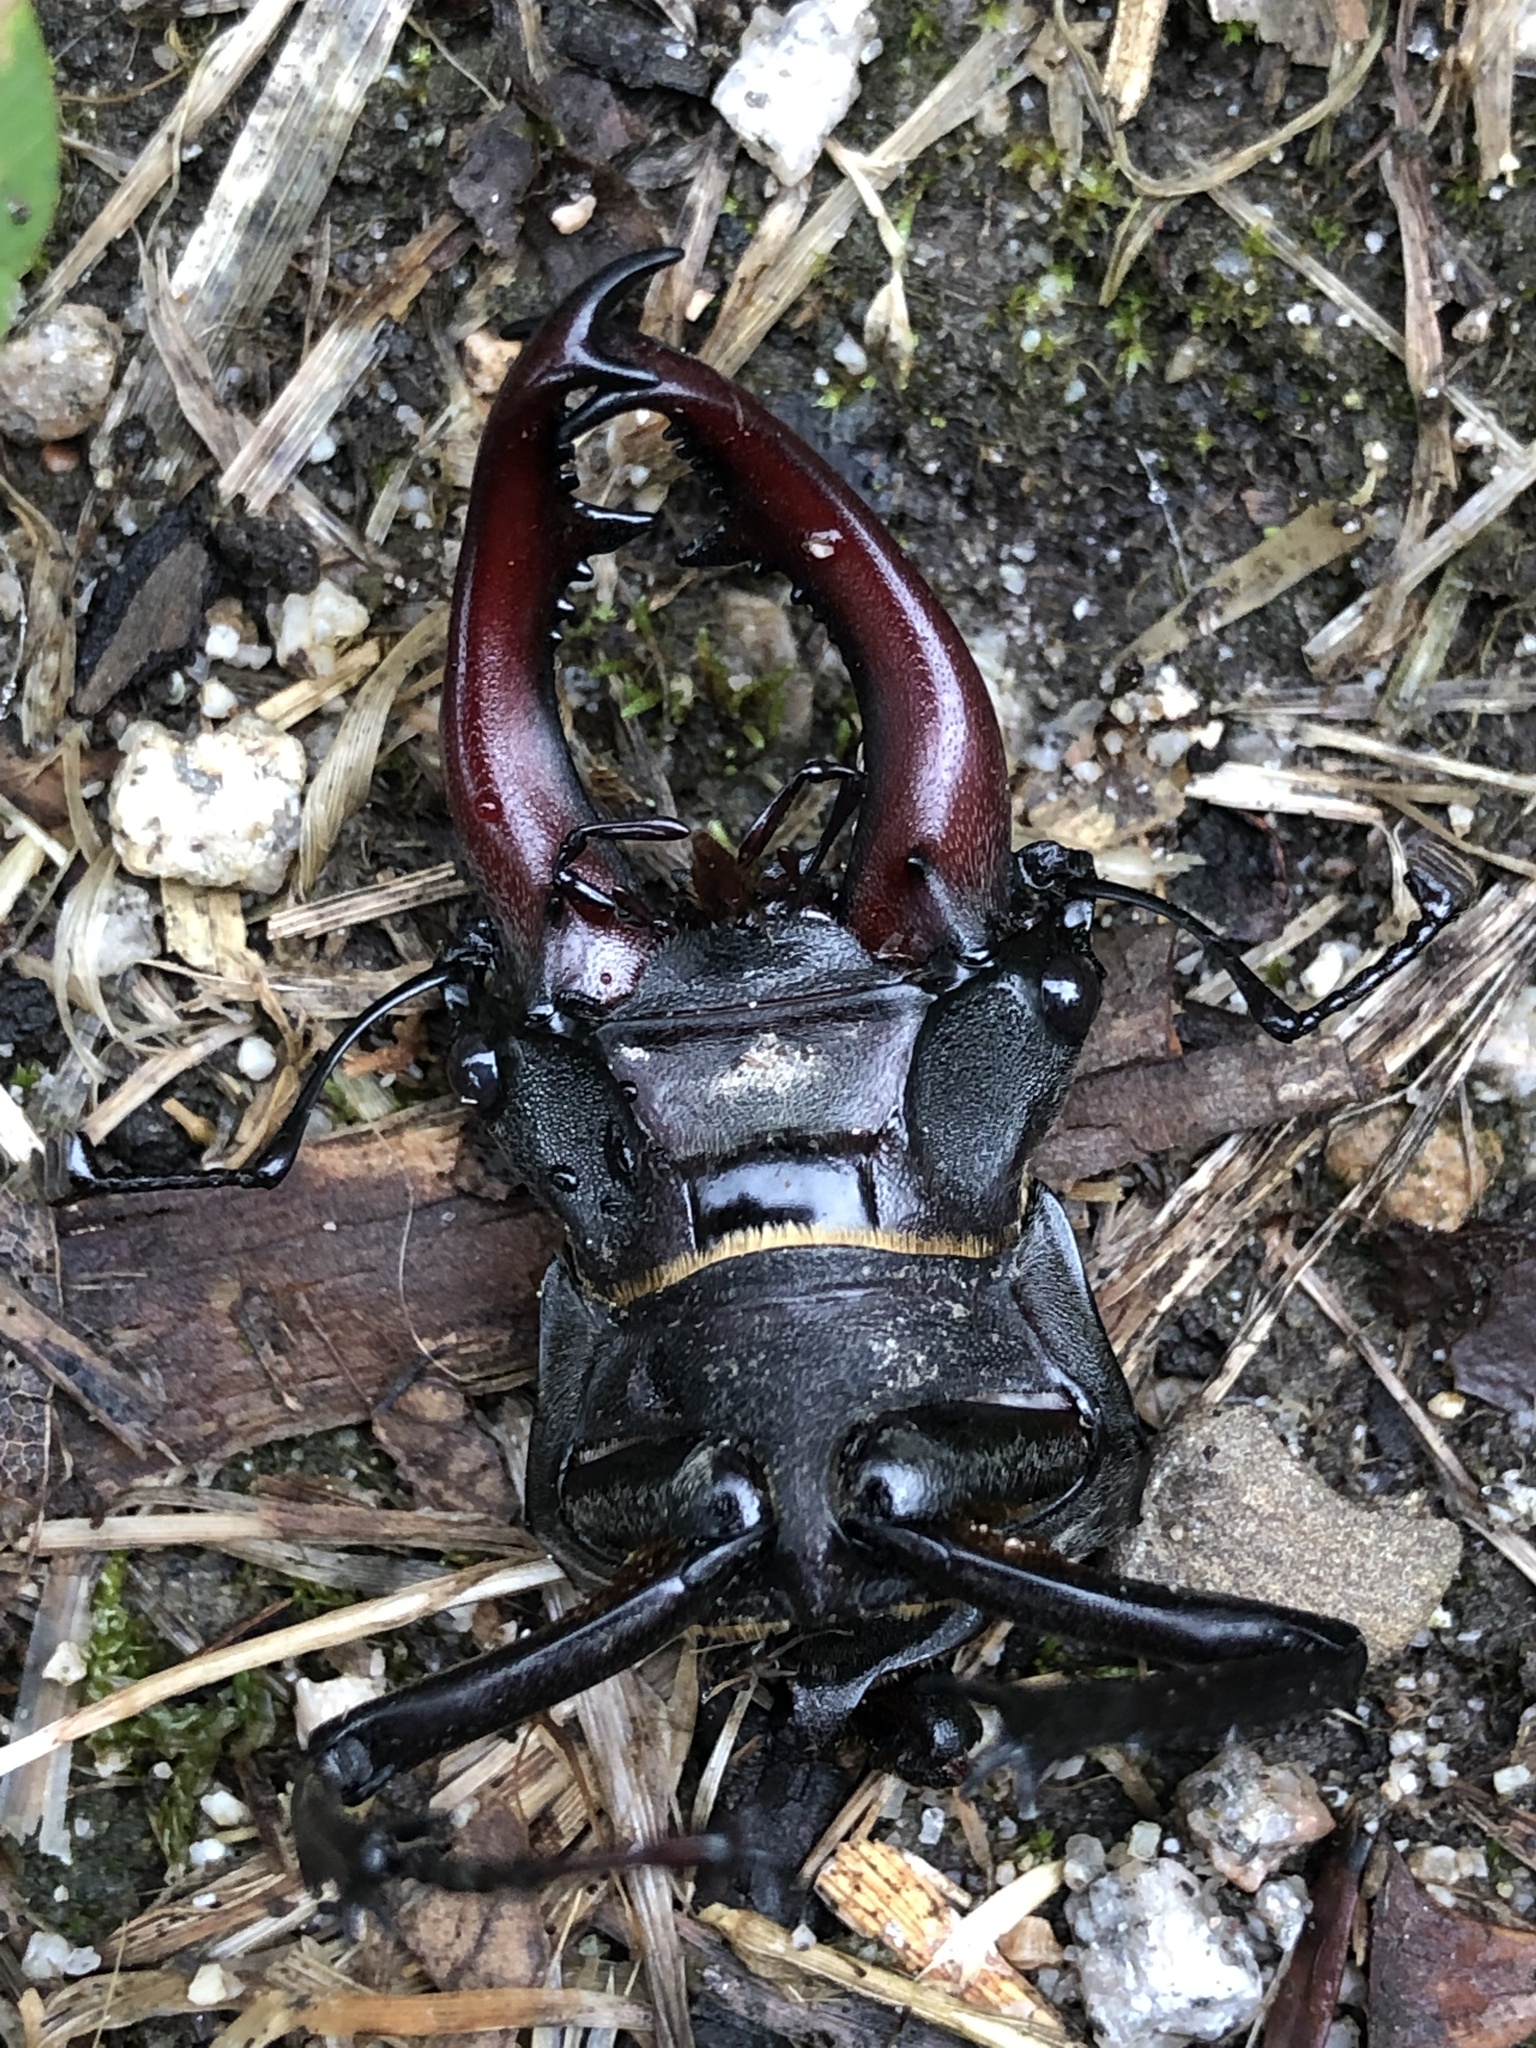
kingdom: Animalia
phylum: Arthropoda
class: Insecta
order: Coleoptera
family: Lucanidae
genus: Lucanus
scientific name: Lucanus cervus
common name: Stag beetle
